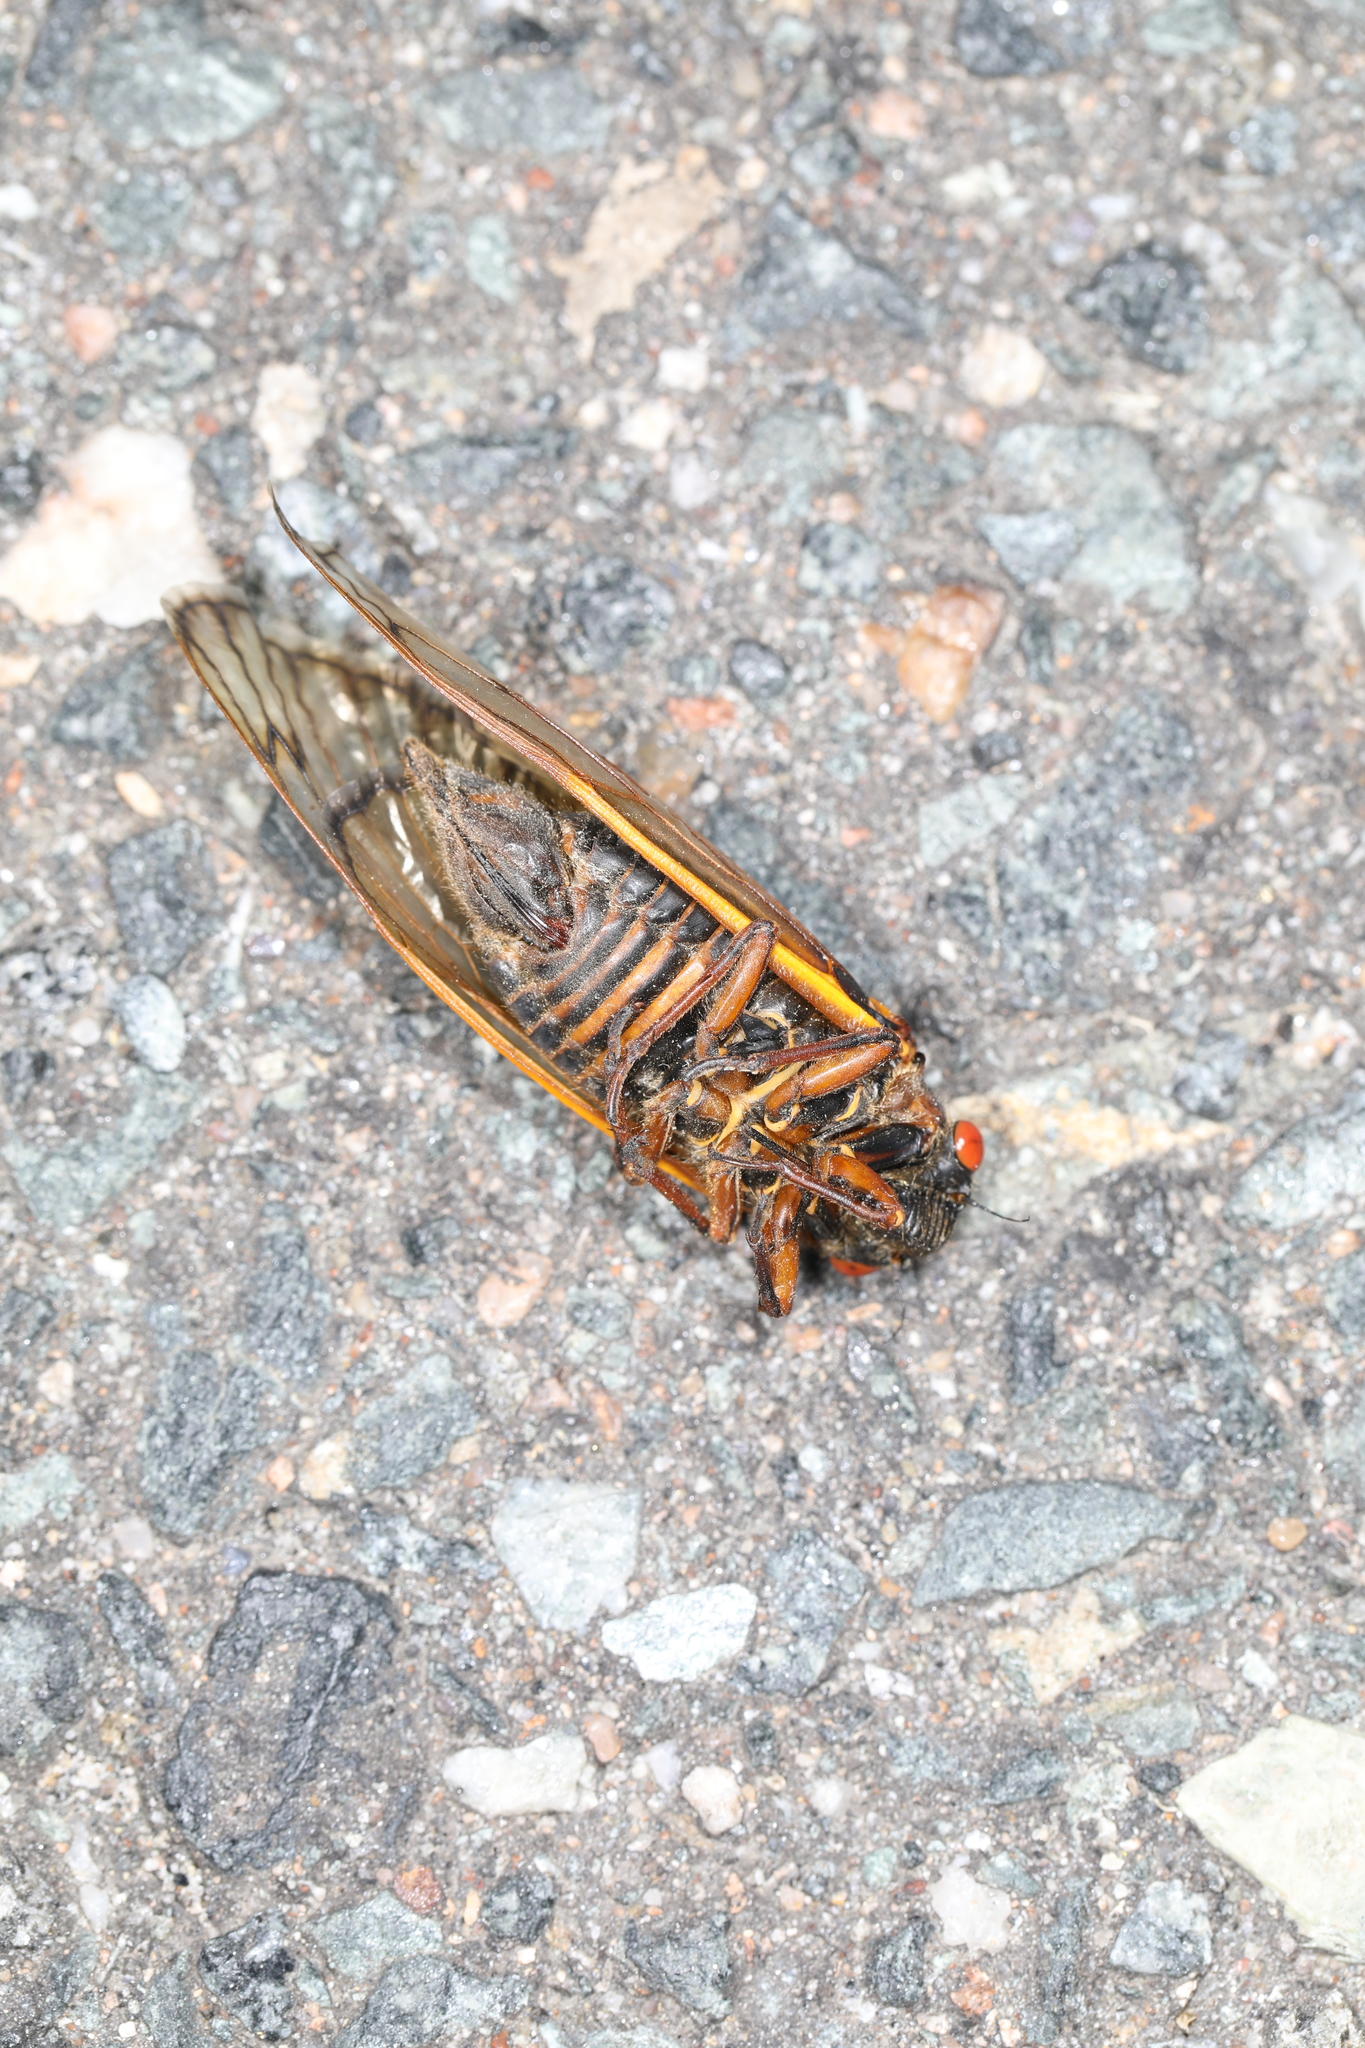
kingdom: Animalia
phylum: Arthropoda
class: Insecta
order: Hemiptera
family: Cicadidae
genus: Magicicada
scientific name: Magicicada septendecim
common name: Periodical cicada
